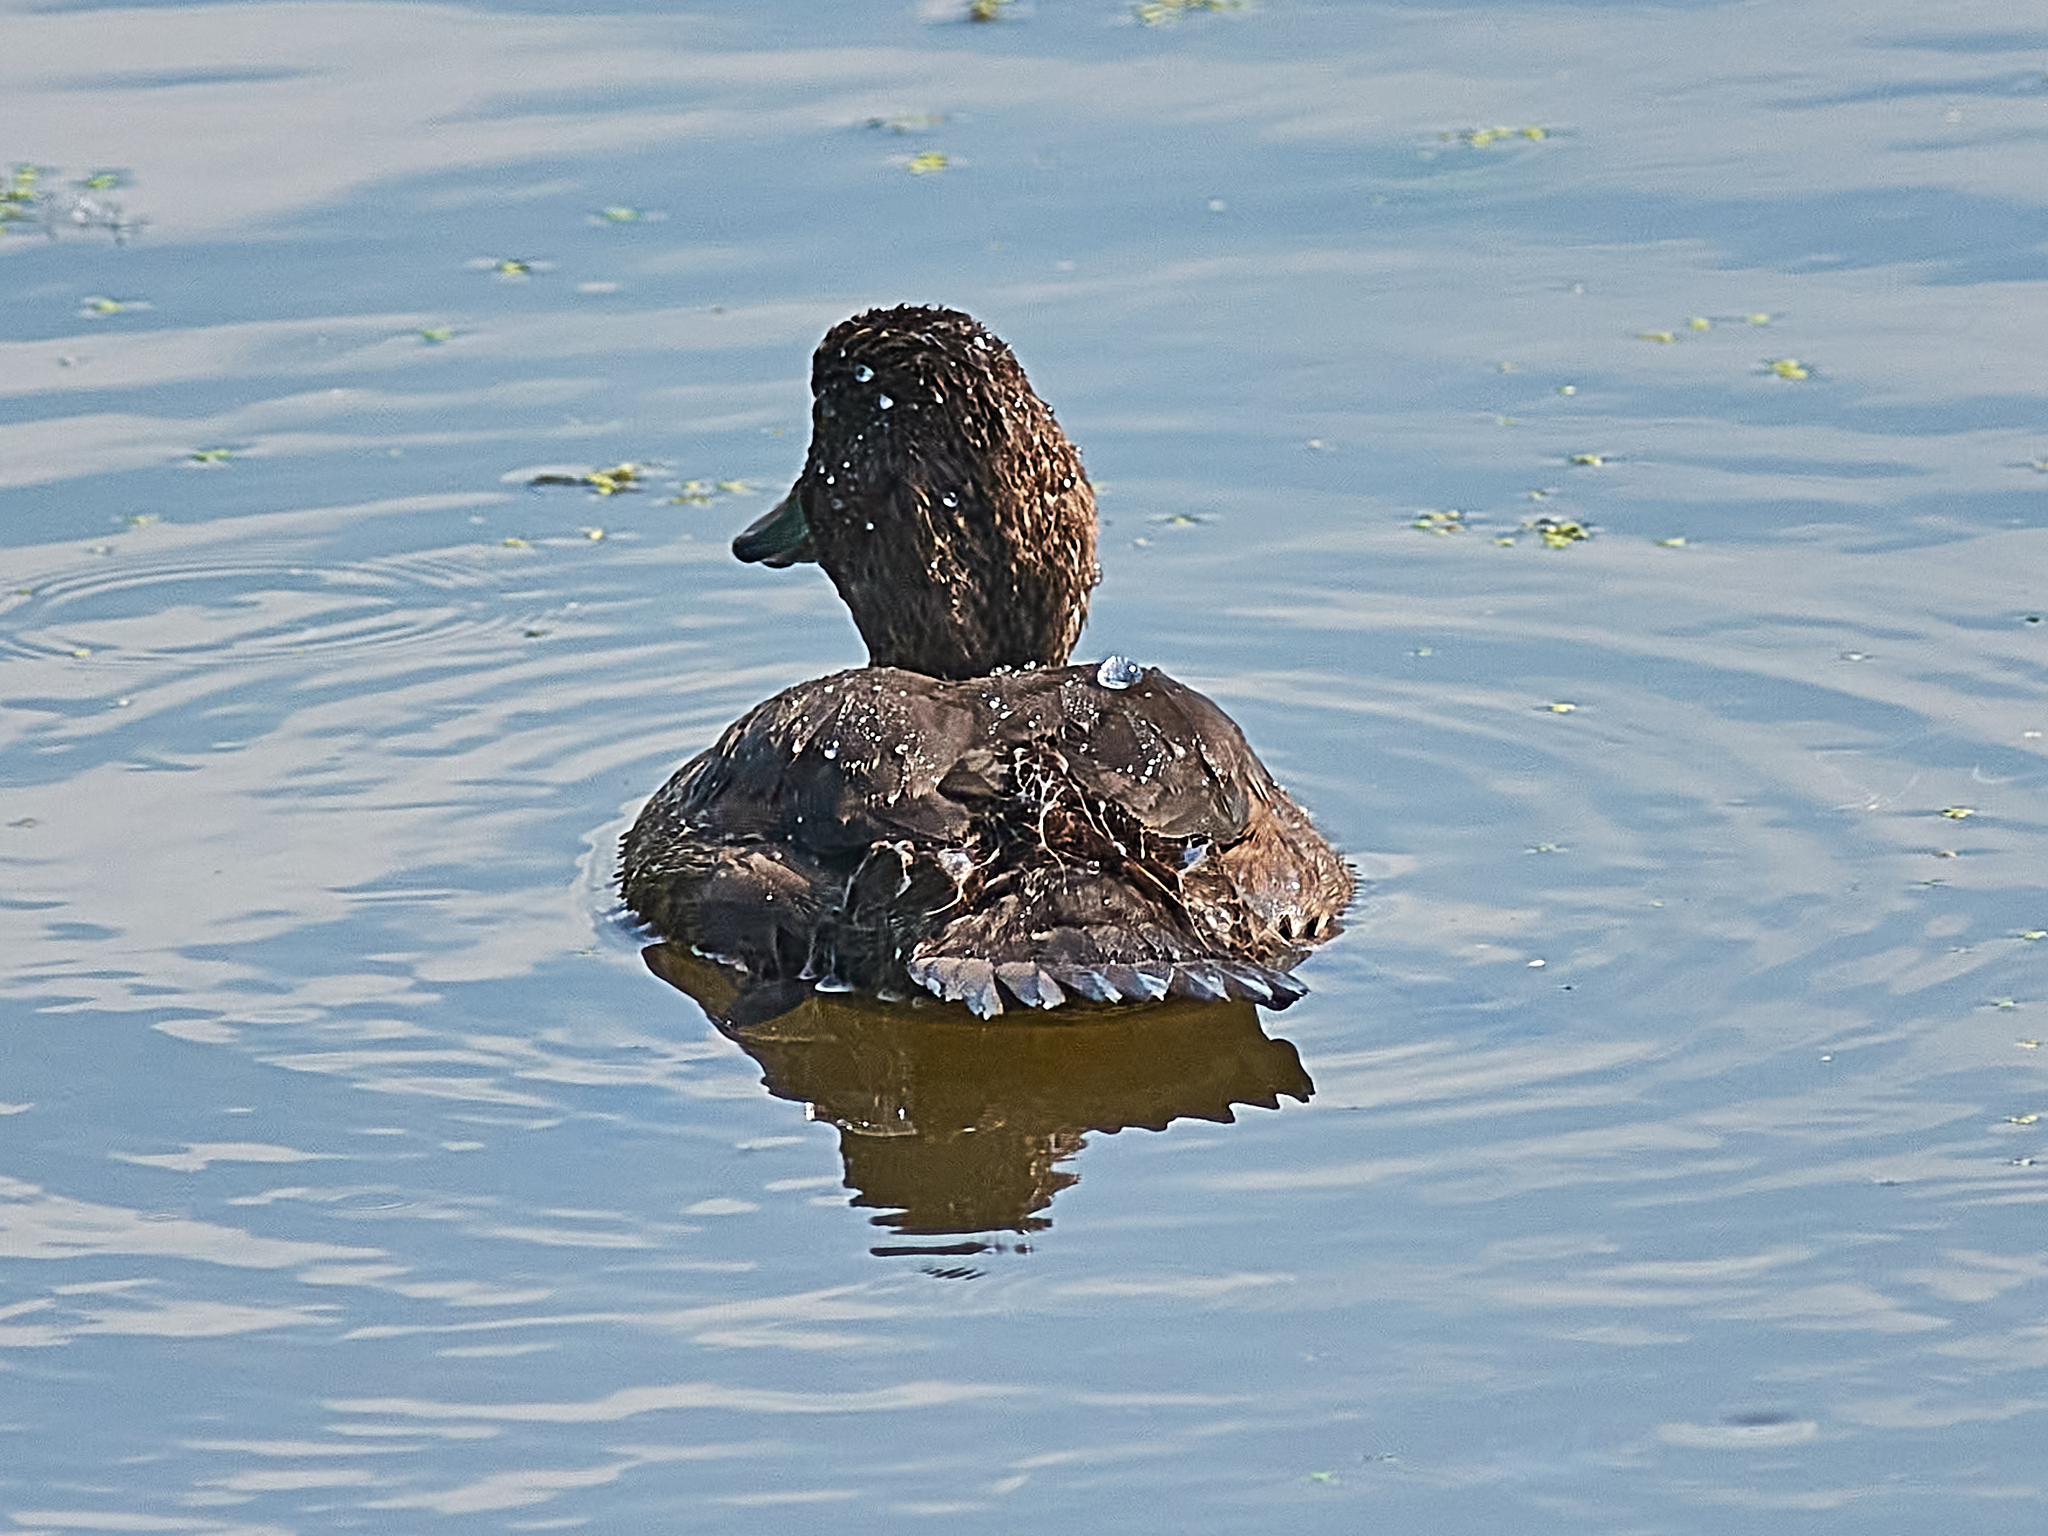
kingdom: Animalia
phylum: Chordata
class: Aves
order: Anseriformes
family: Anatidae
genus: Aythya
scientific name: Aythya ferina
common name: Common pochard
